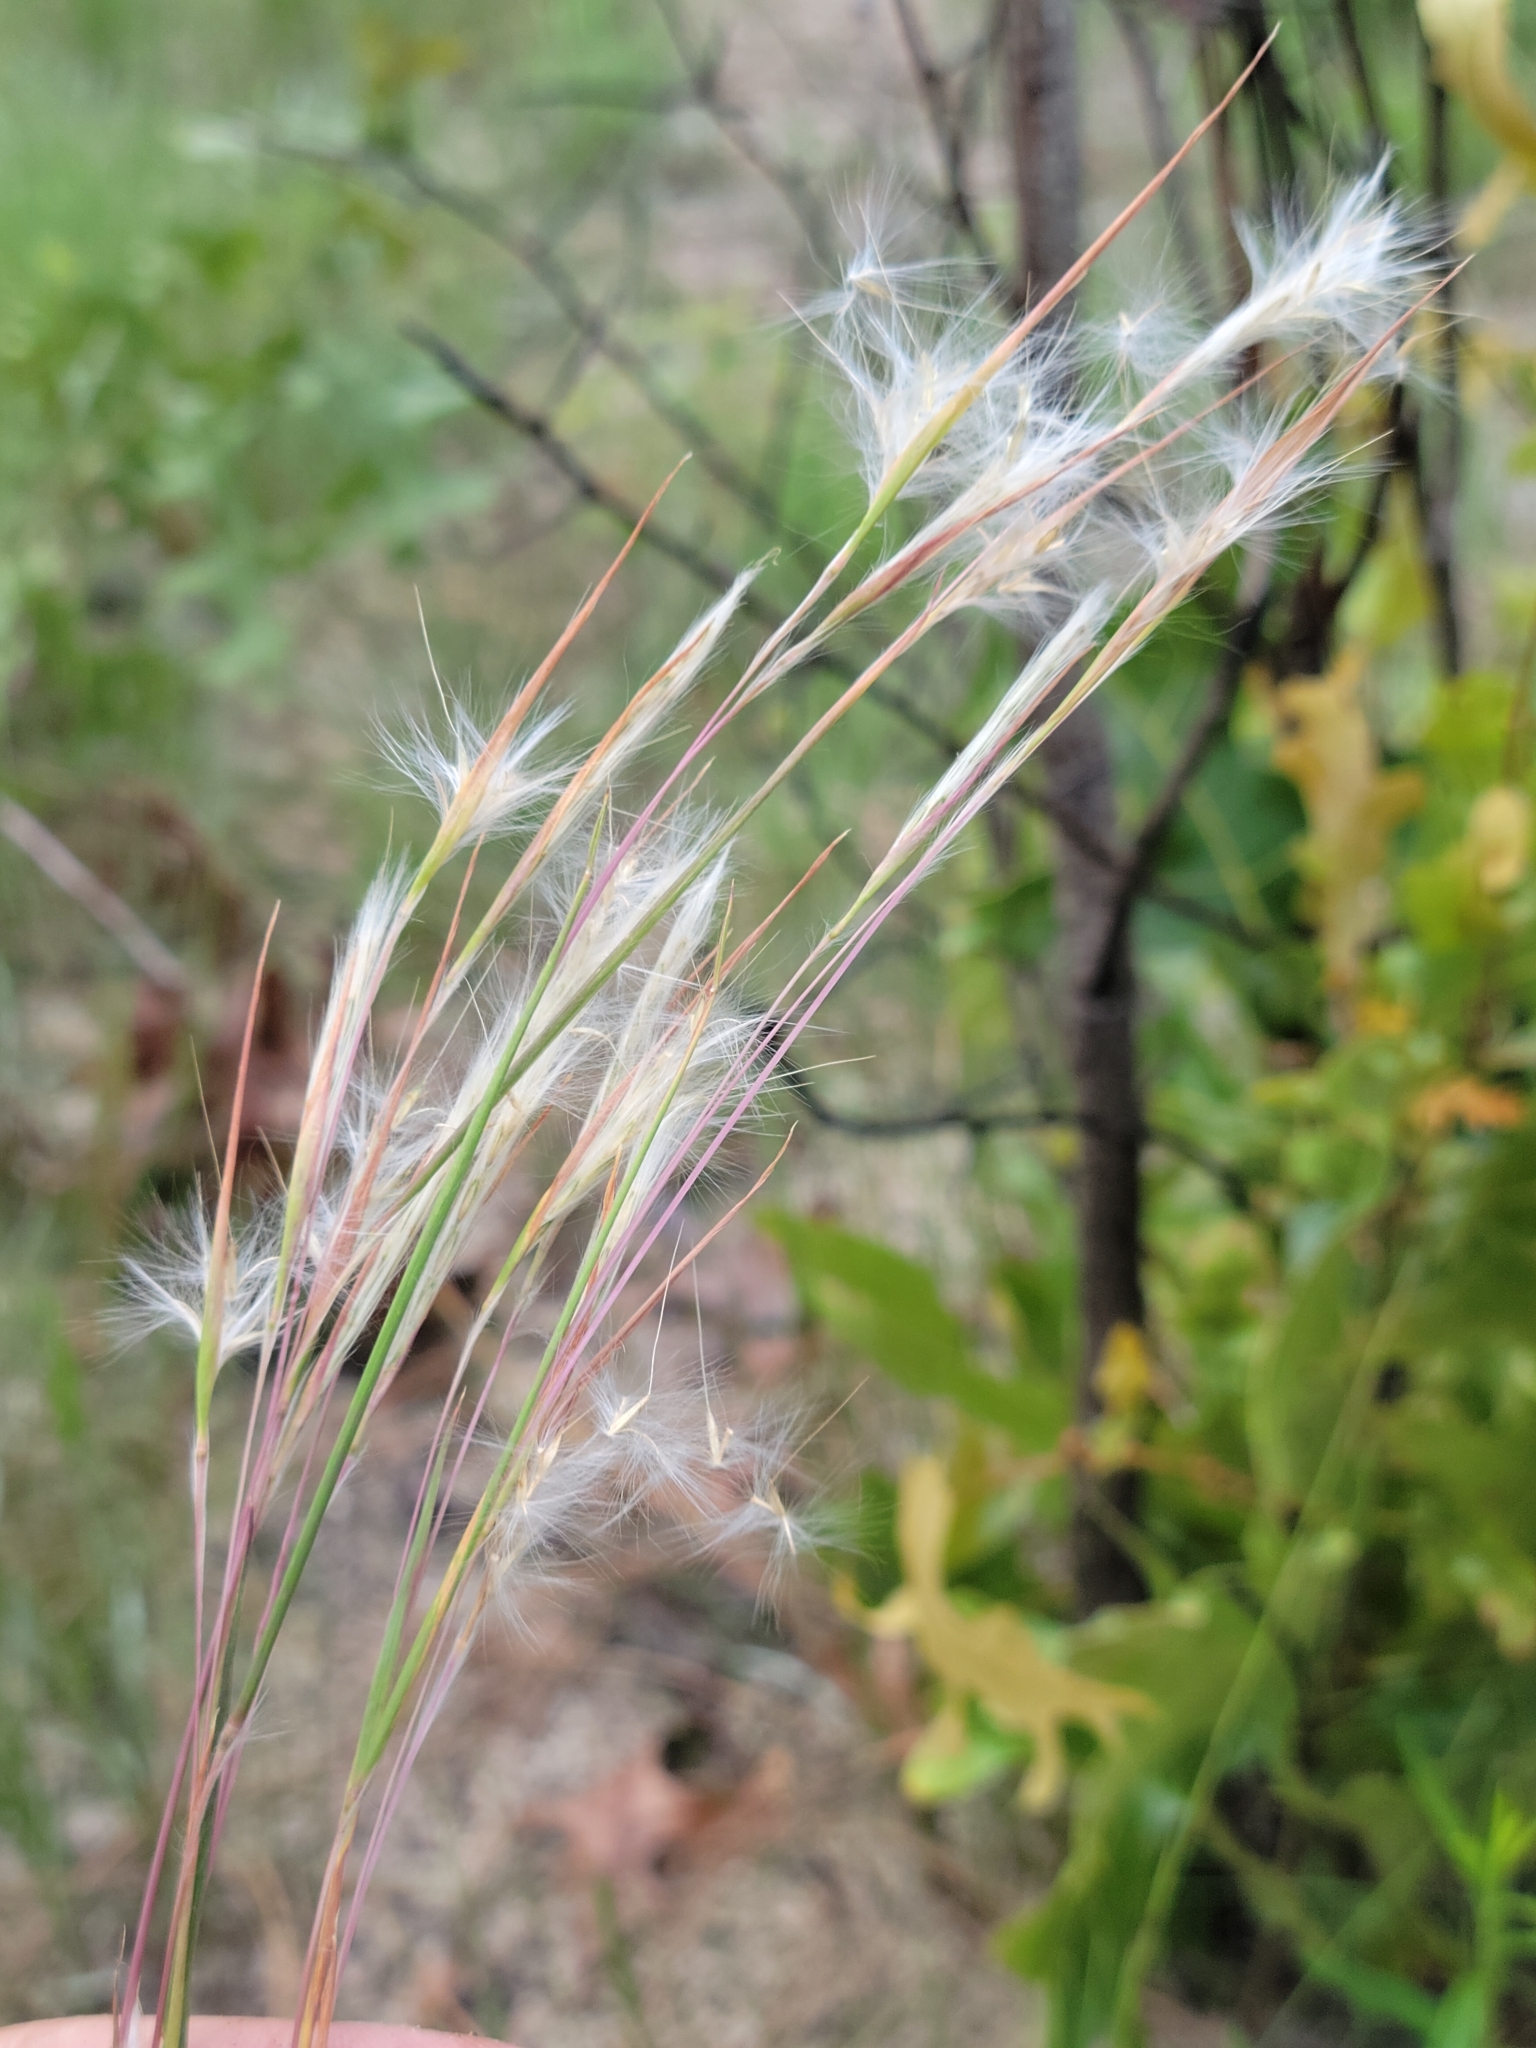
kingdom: Plantae
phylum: Tracheophyta
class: Liliopsida
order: Poales
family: Poaceae
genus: Andropogon
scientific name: Andropogon tracyi
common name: Tracy's bluestem
